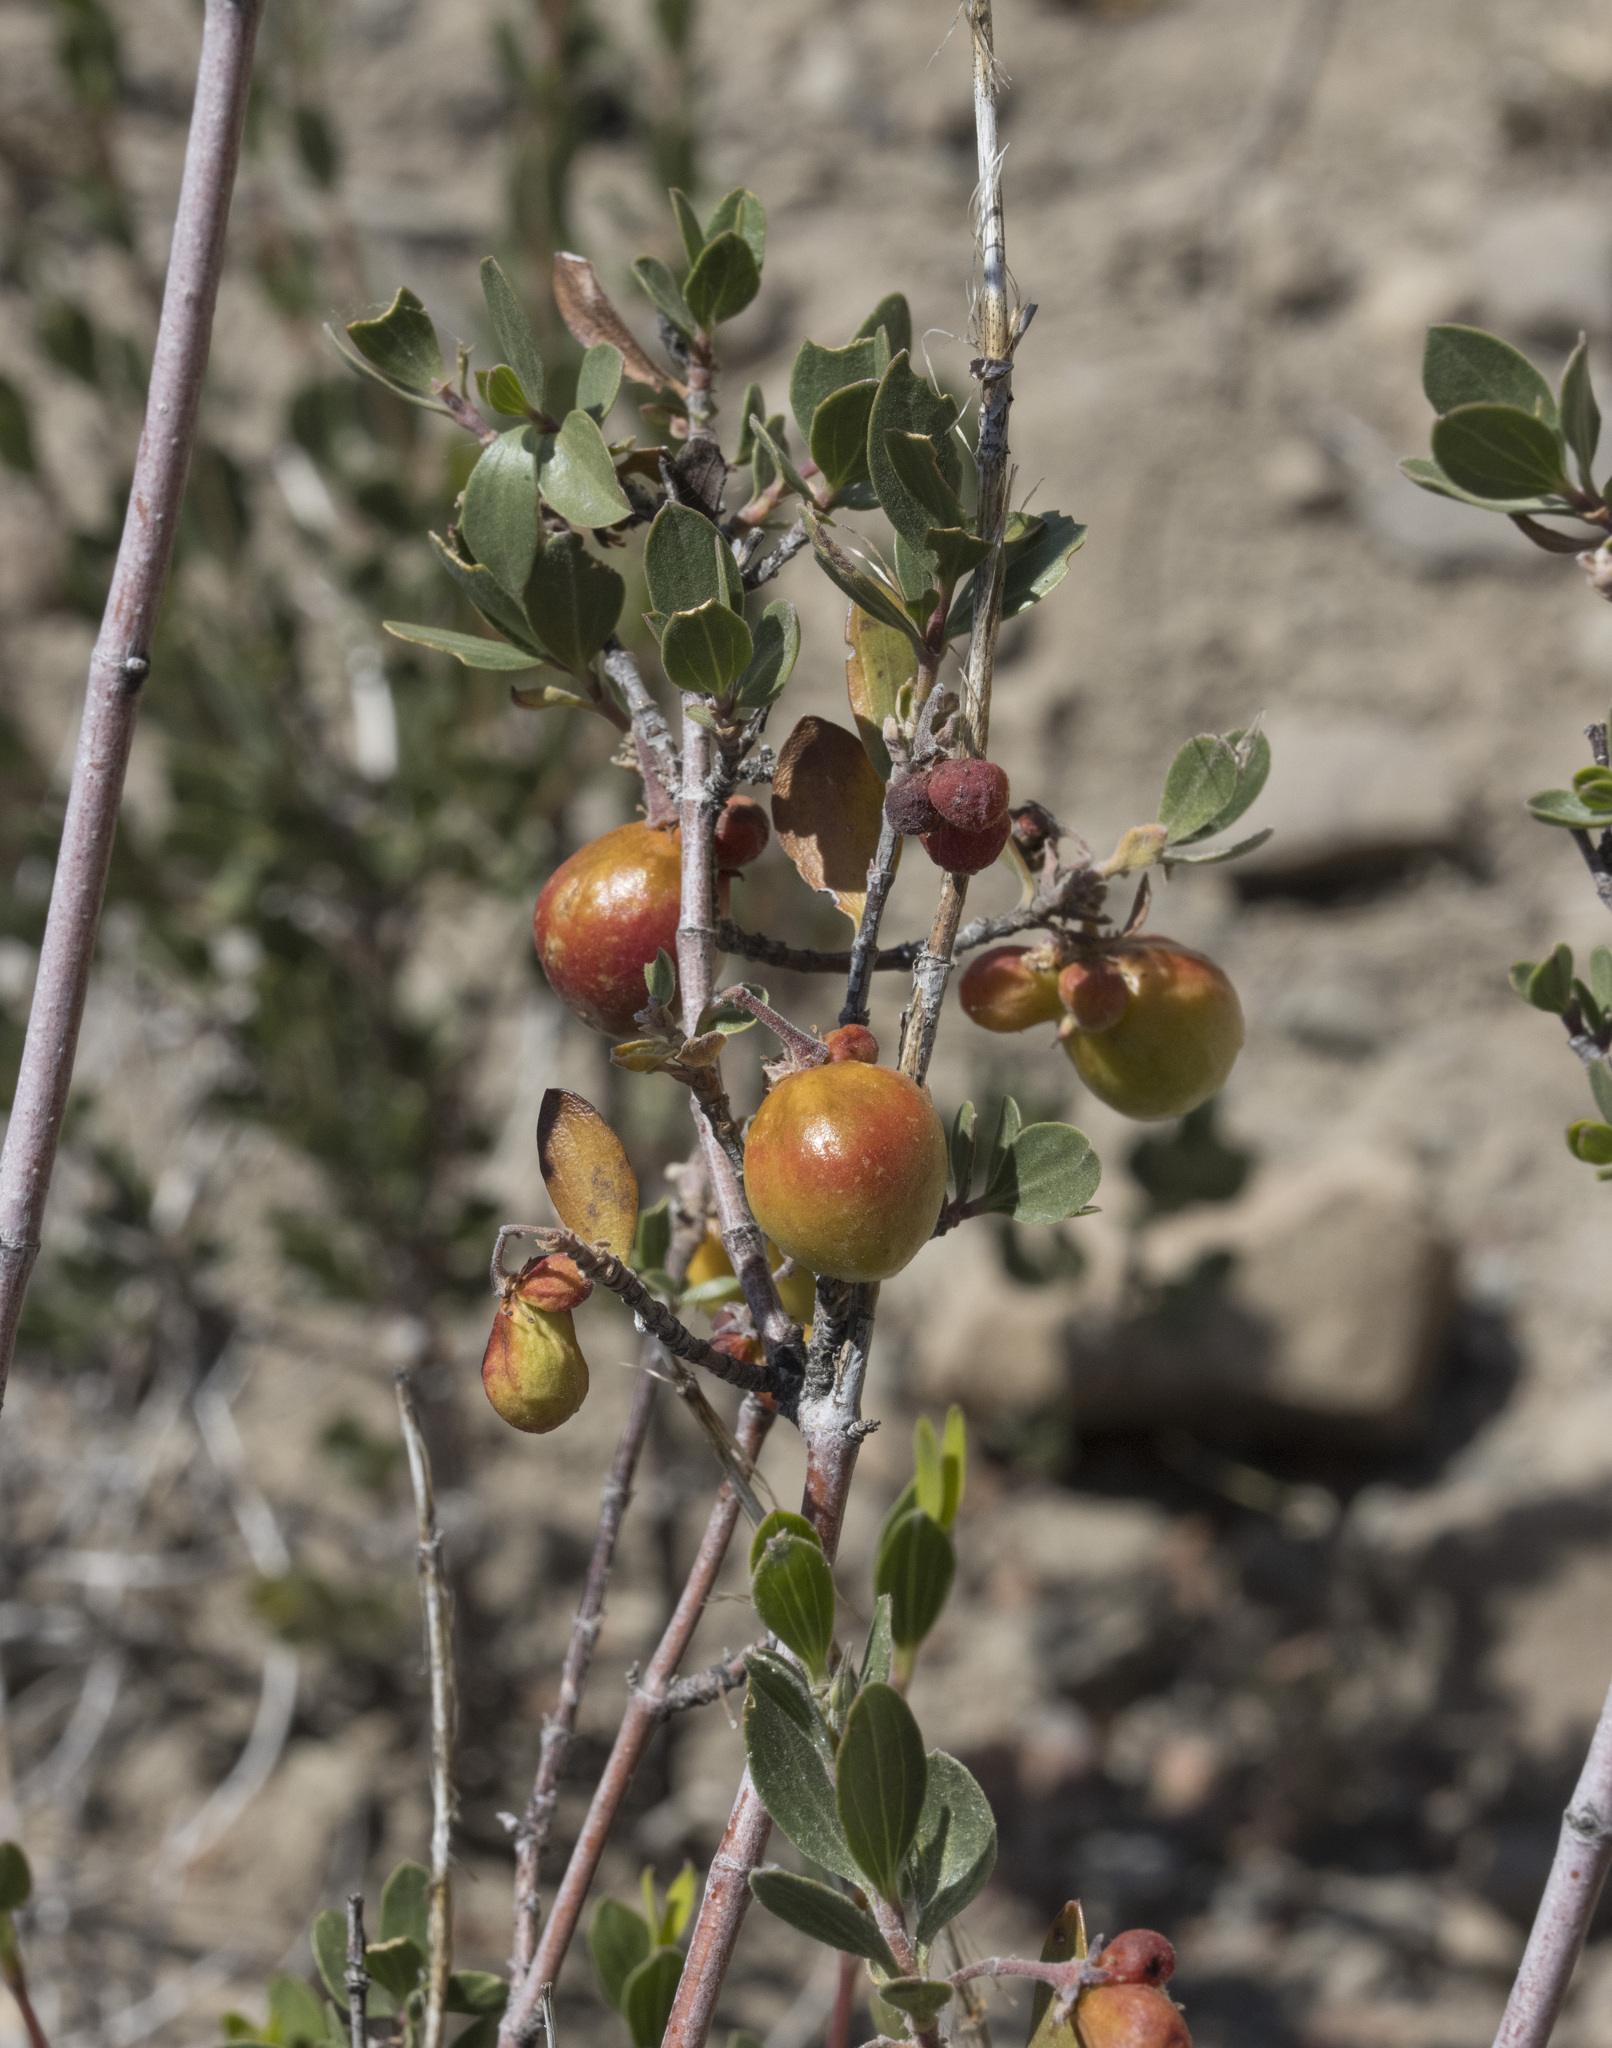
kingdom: Plantae
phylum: Tracheophyta
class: Magnoliopsida
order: Sapindales
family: Sapindaceae
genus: Guindilia
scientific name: Guindilia trinervis
